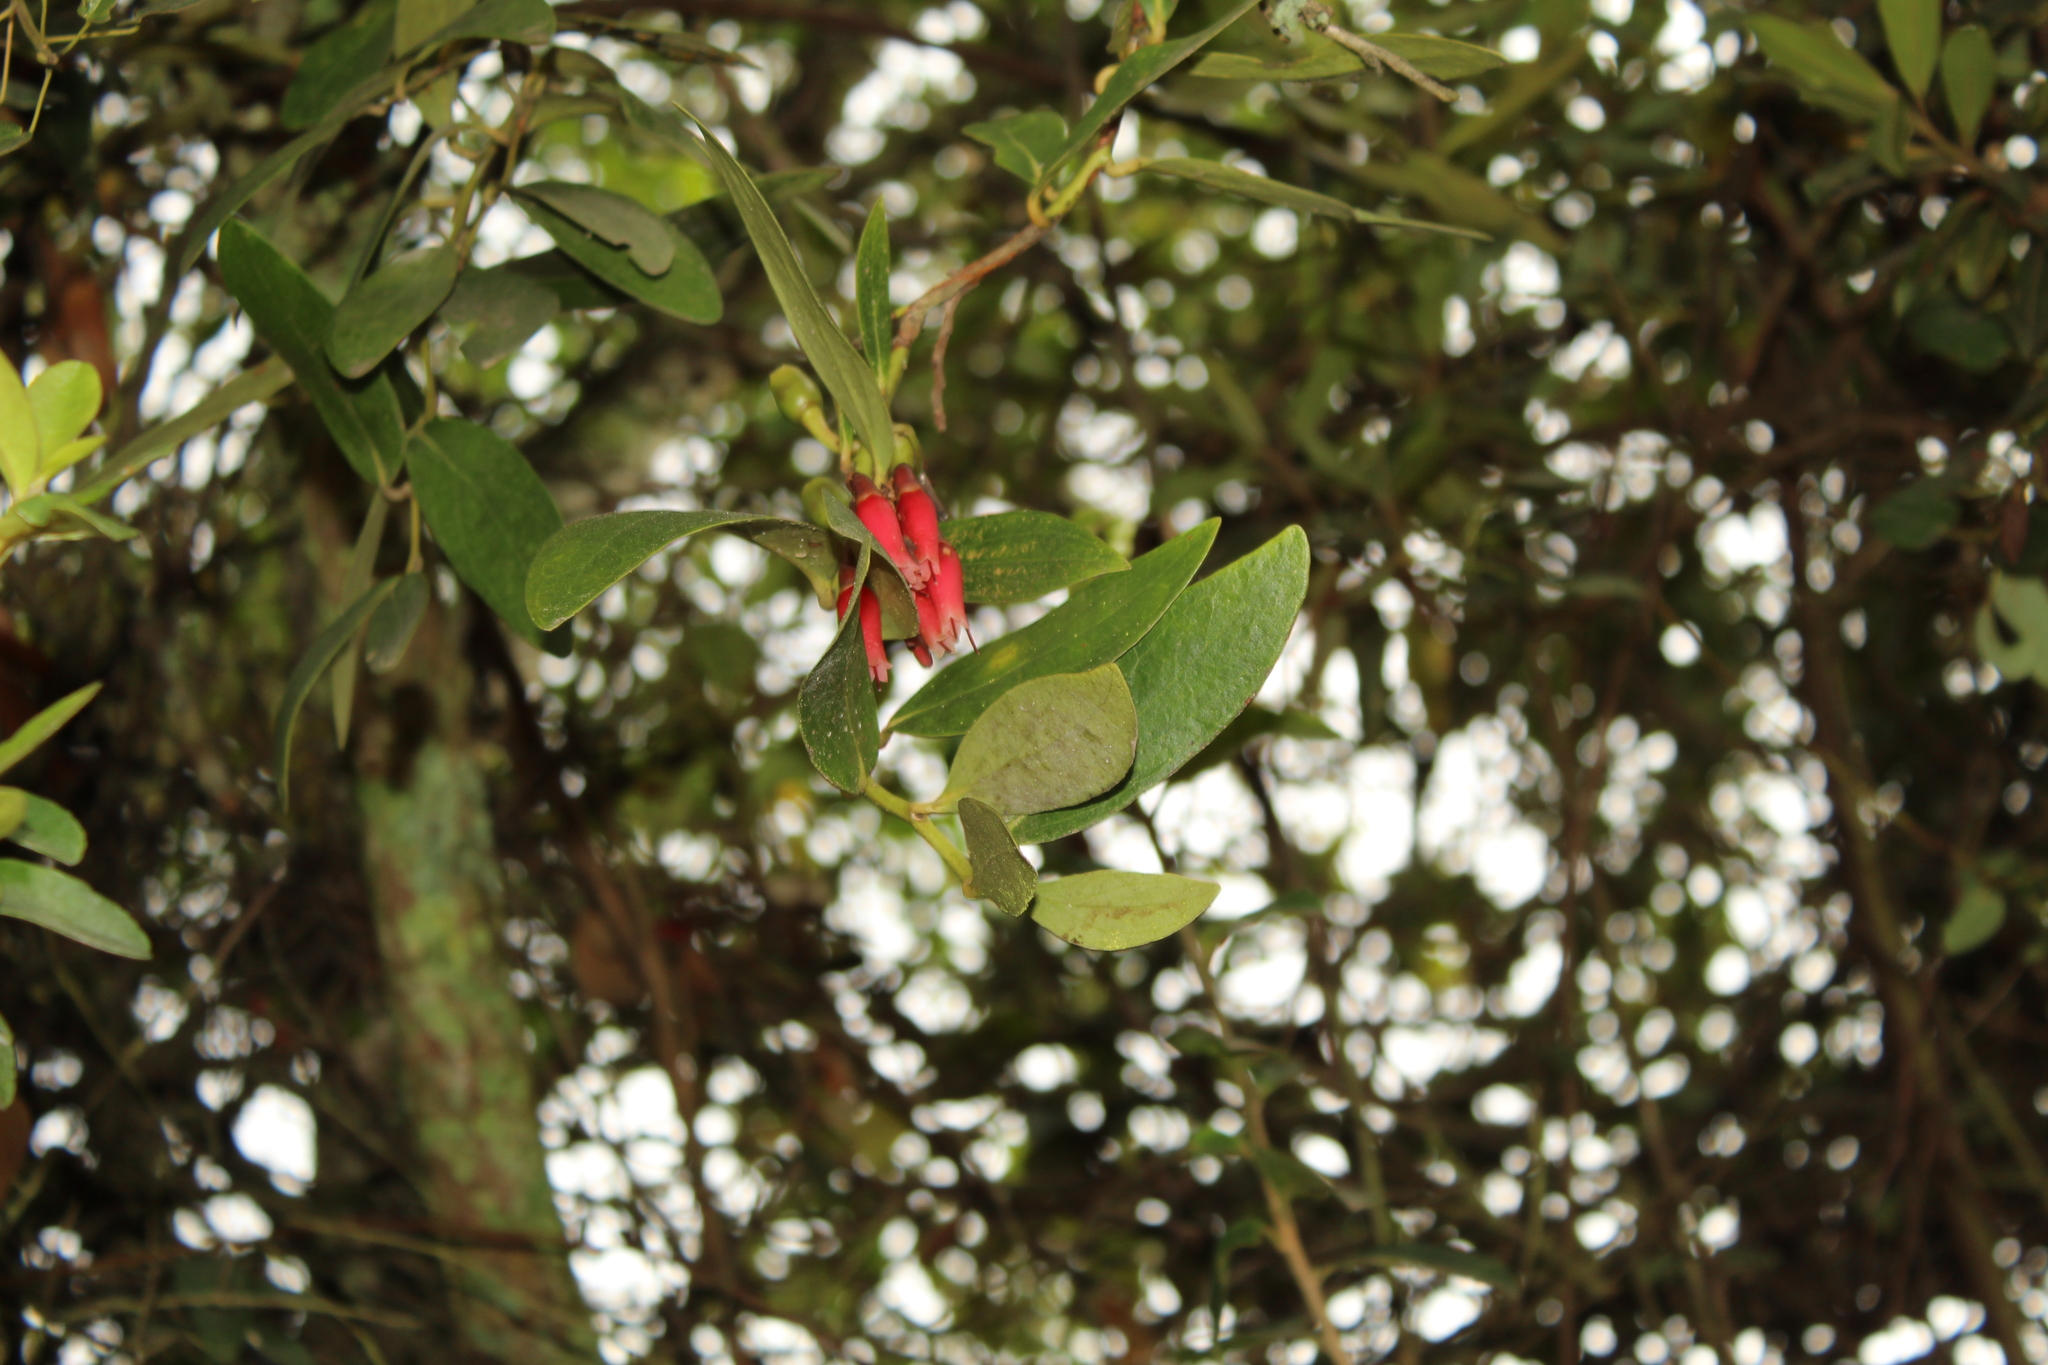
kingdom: Plantae
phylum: Tracheophyta
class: Magnoliopsida
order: Ericales
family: Ericaceae
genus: Macleania
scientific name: Macleania rupestris
